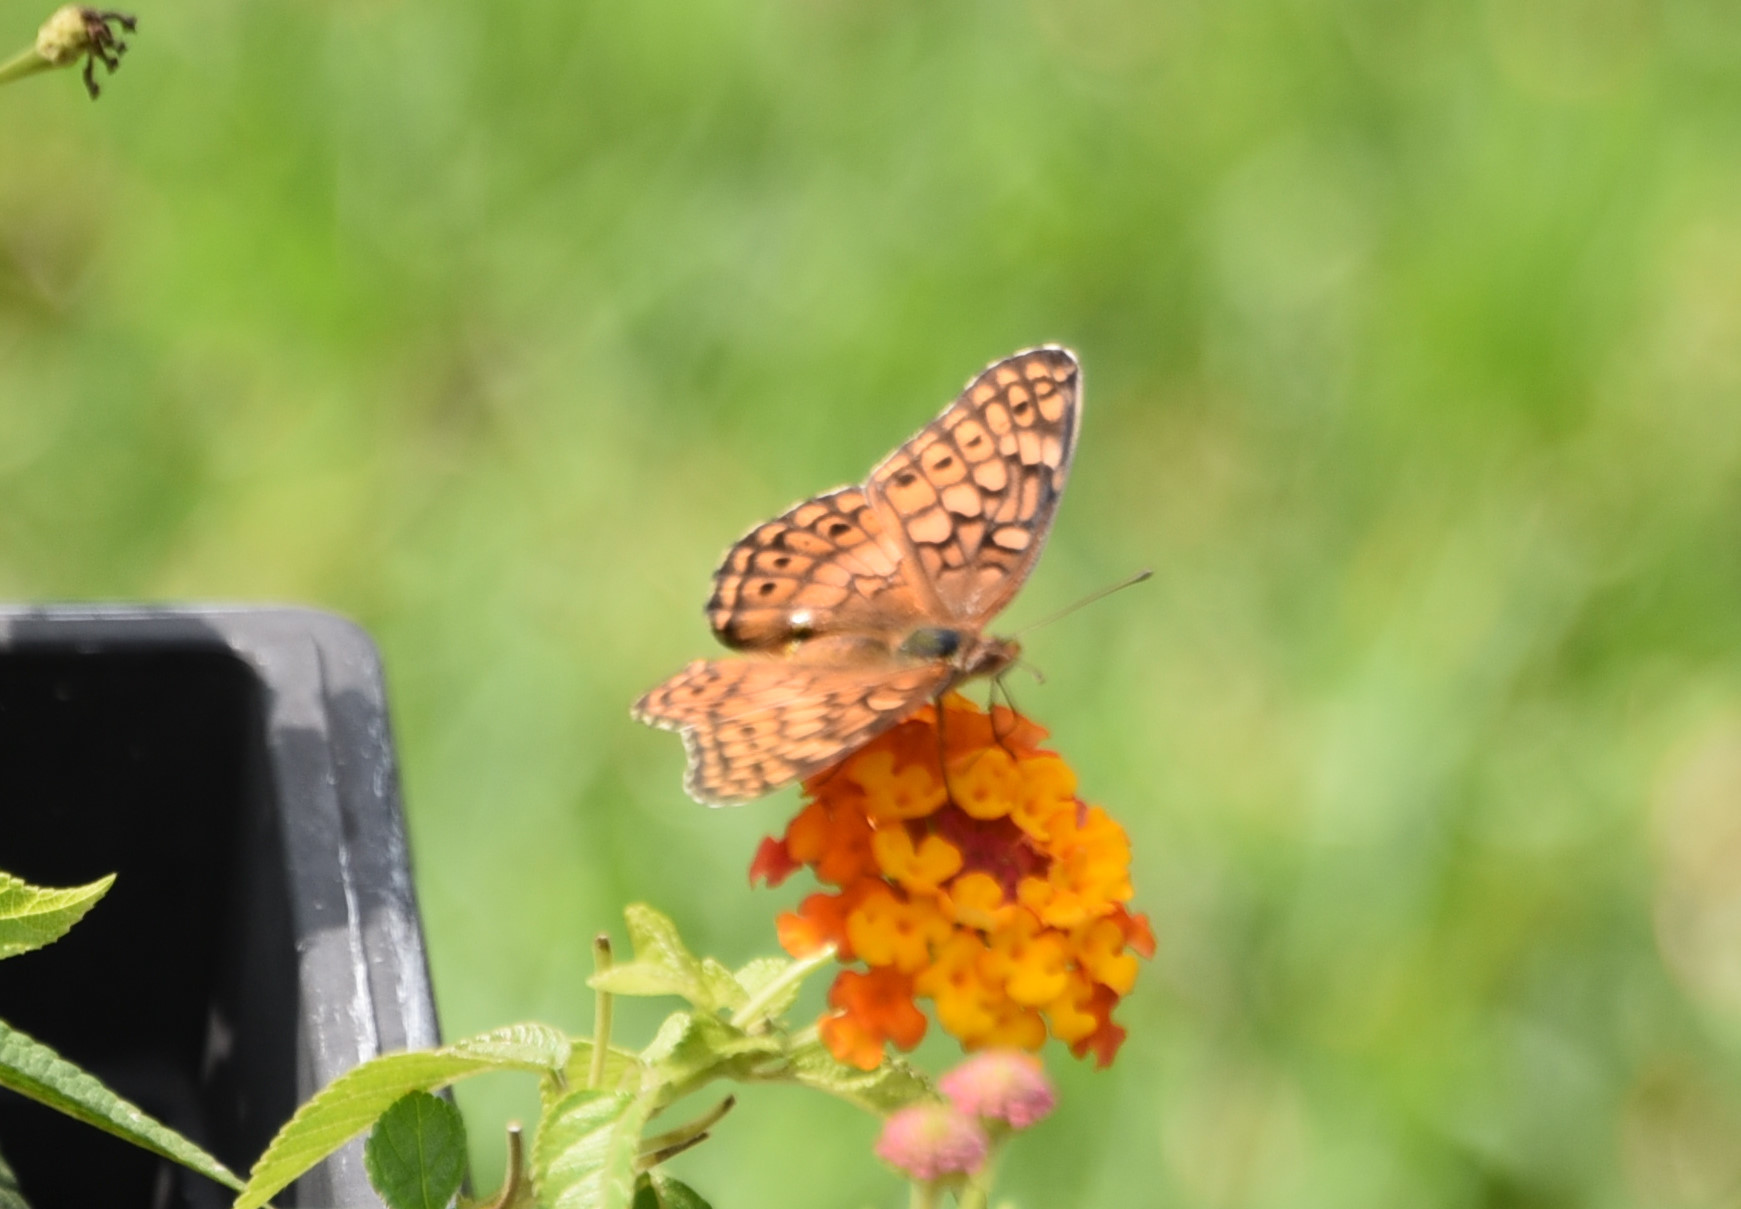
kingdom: Animalia
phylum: Arthropoda
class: Insecta
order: Lepidoptera
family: Nymphalidae
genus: Euptoieta
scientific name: Euptoieta claudia
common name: Variegated fritillary
